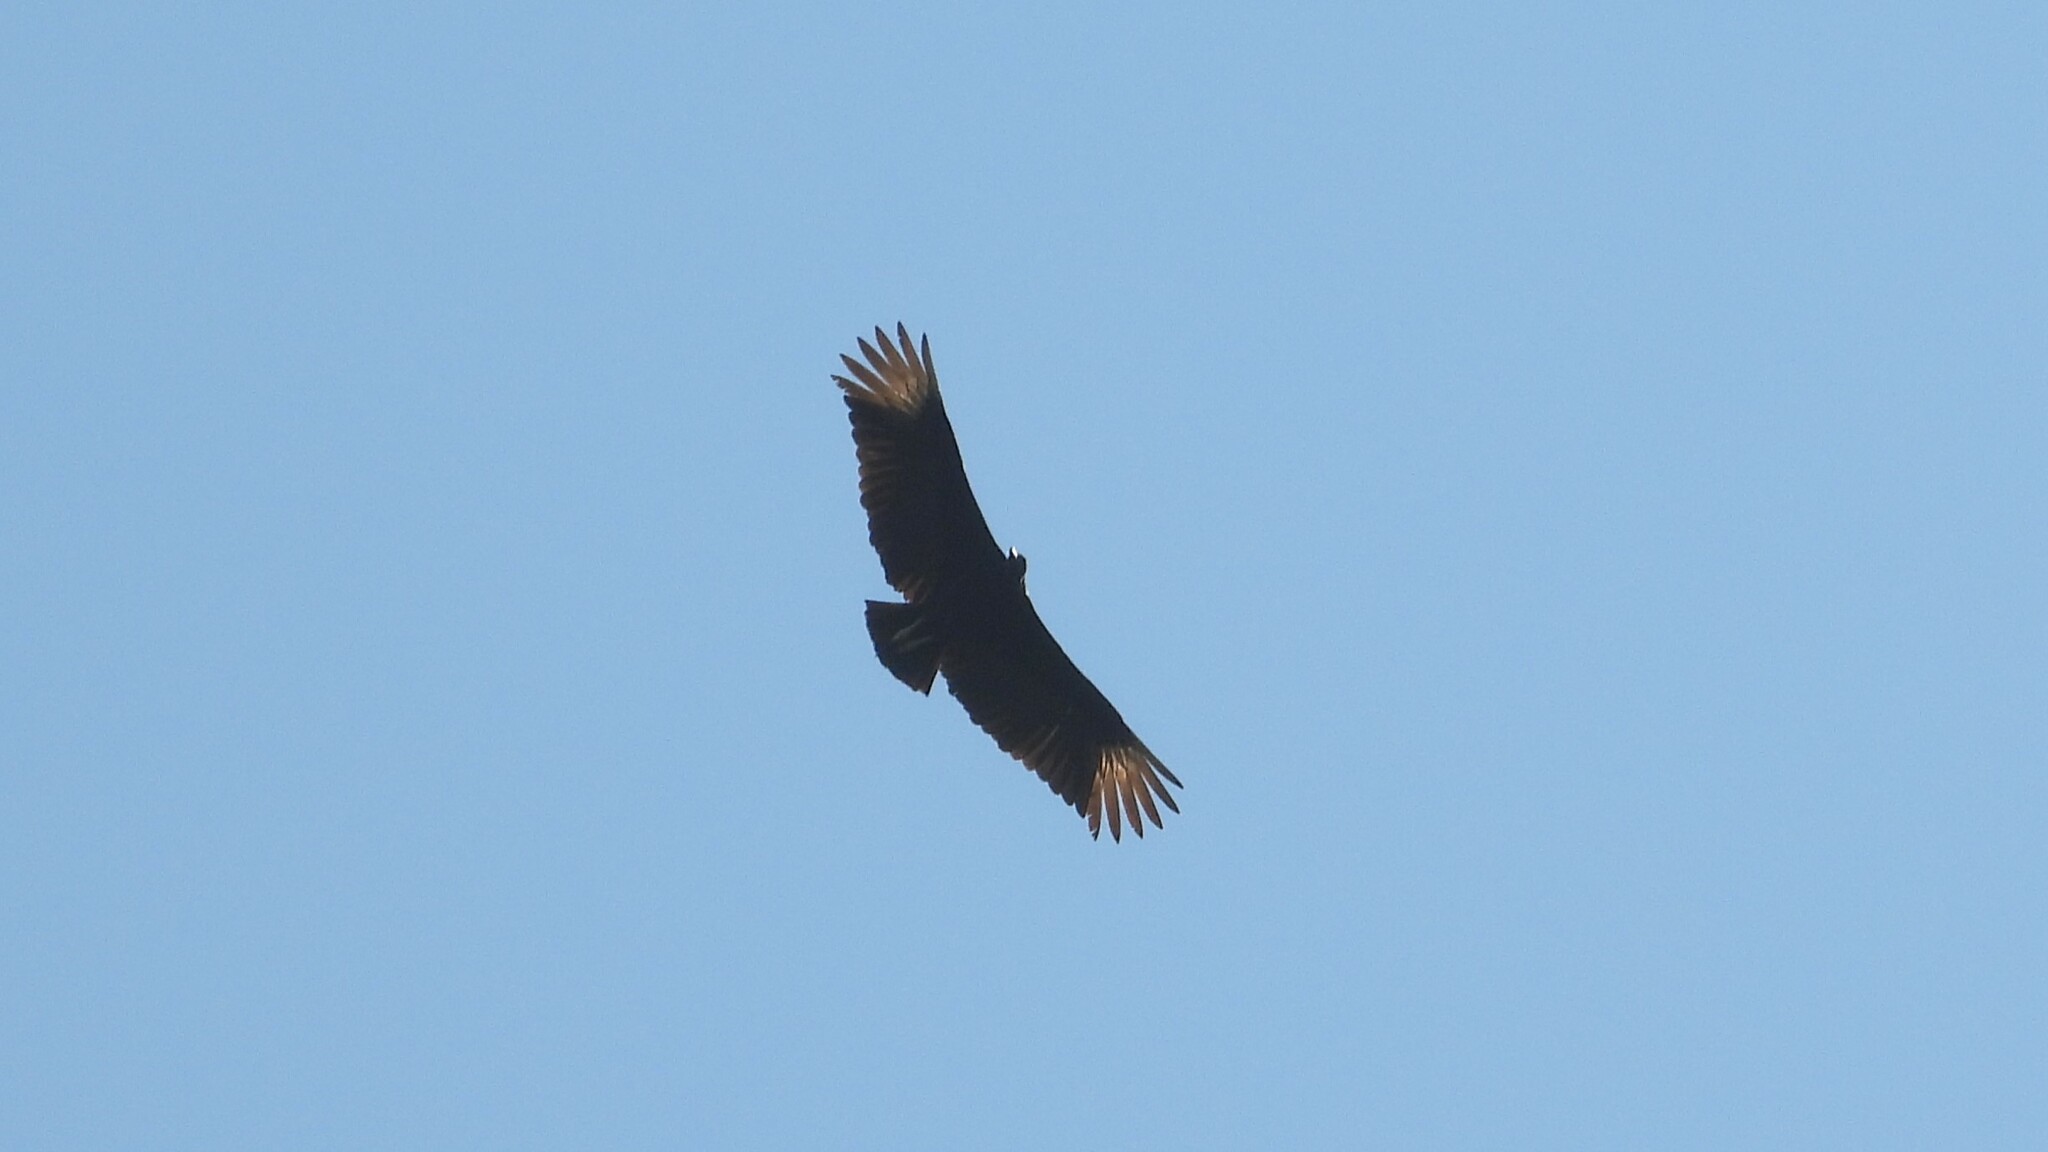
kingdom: Animalia
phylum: Chordata
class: Aves
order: Accipitriformes
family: Cathartidae
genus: Coragyps
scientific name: Coragyps atratus
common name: Black vulture
